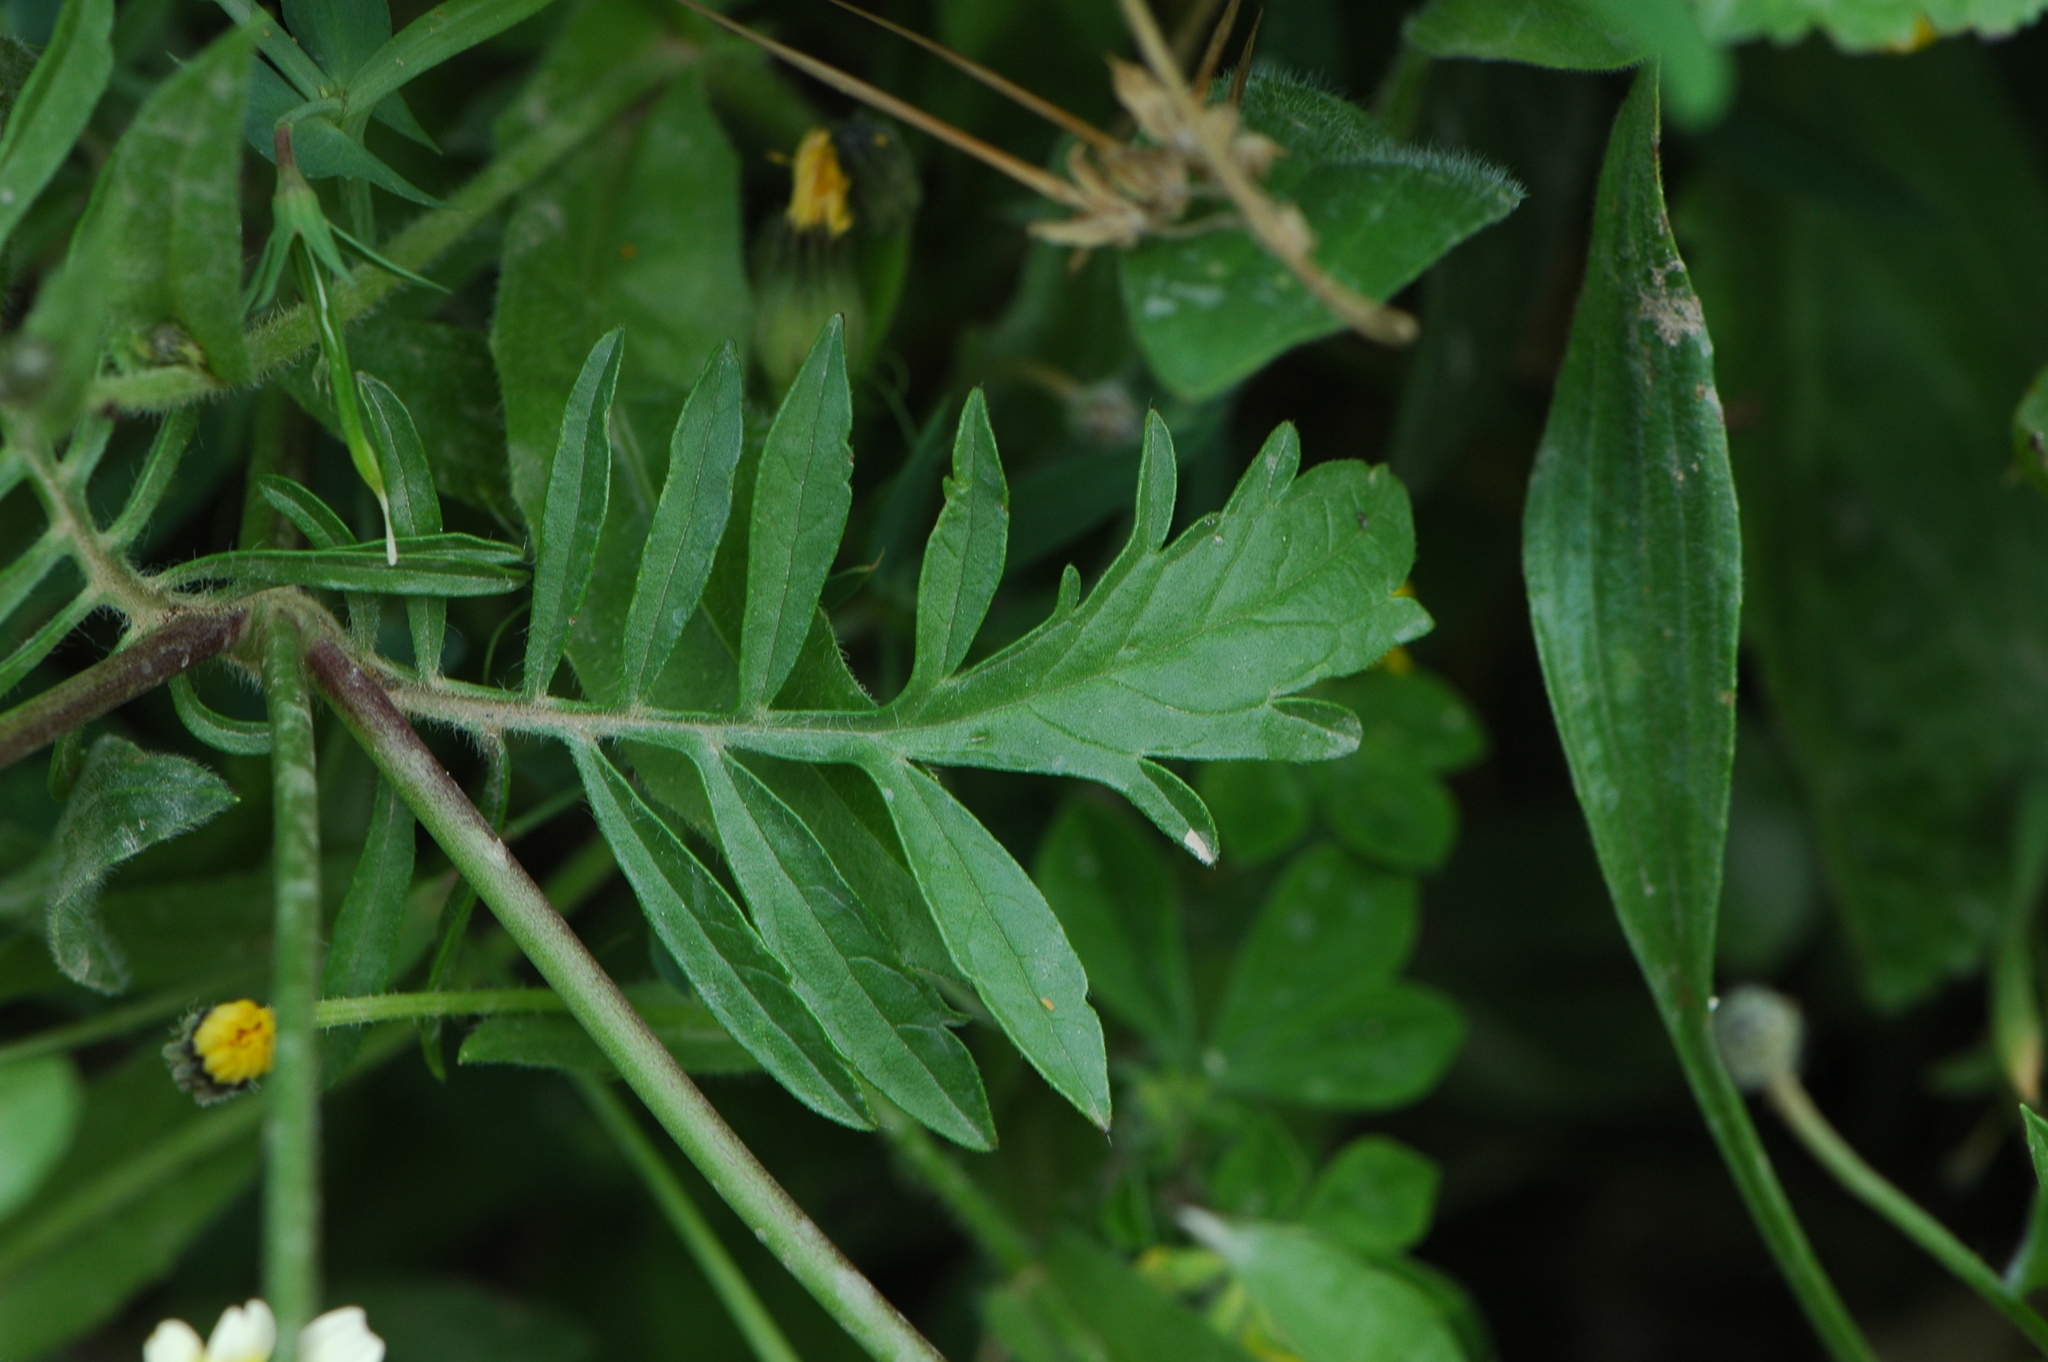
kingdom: Plantae
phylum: Tracheophyta
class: Magnoliopsida
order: Dipsacales
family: Caprifoliaceae
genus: Sixalix
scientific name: Sixalix atropurpurea
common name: Sweet scabious
